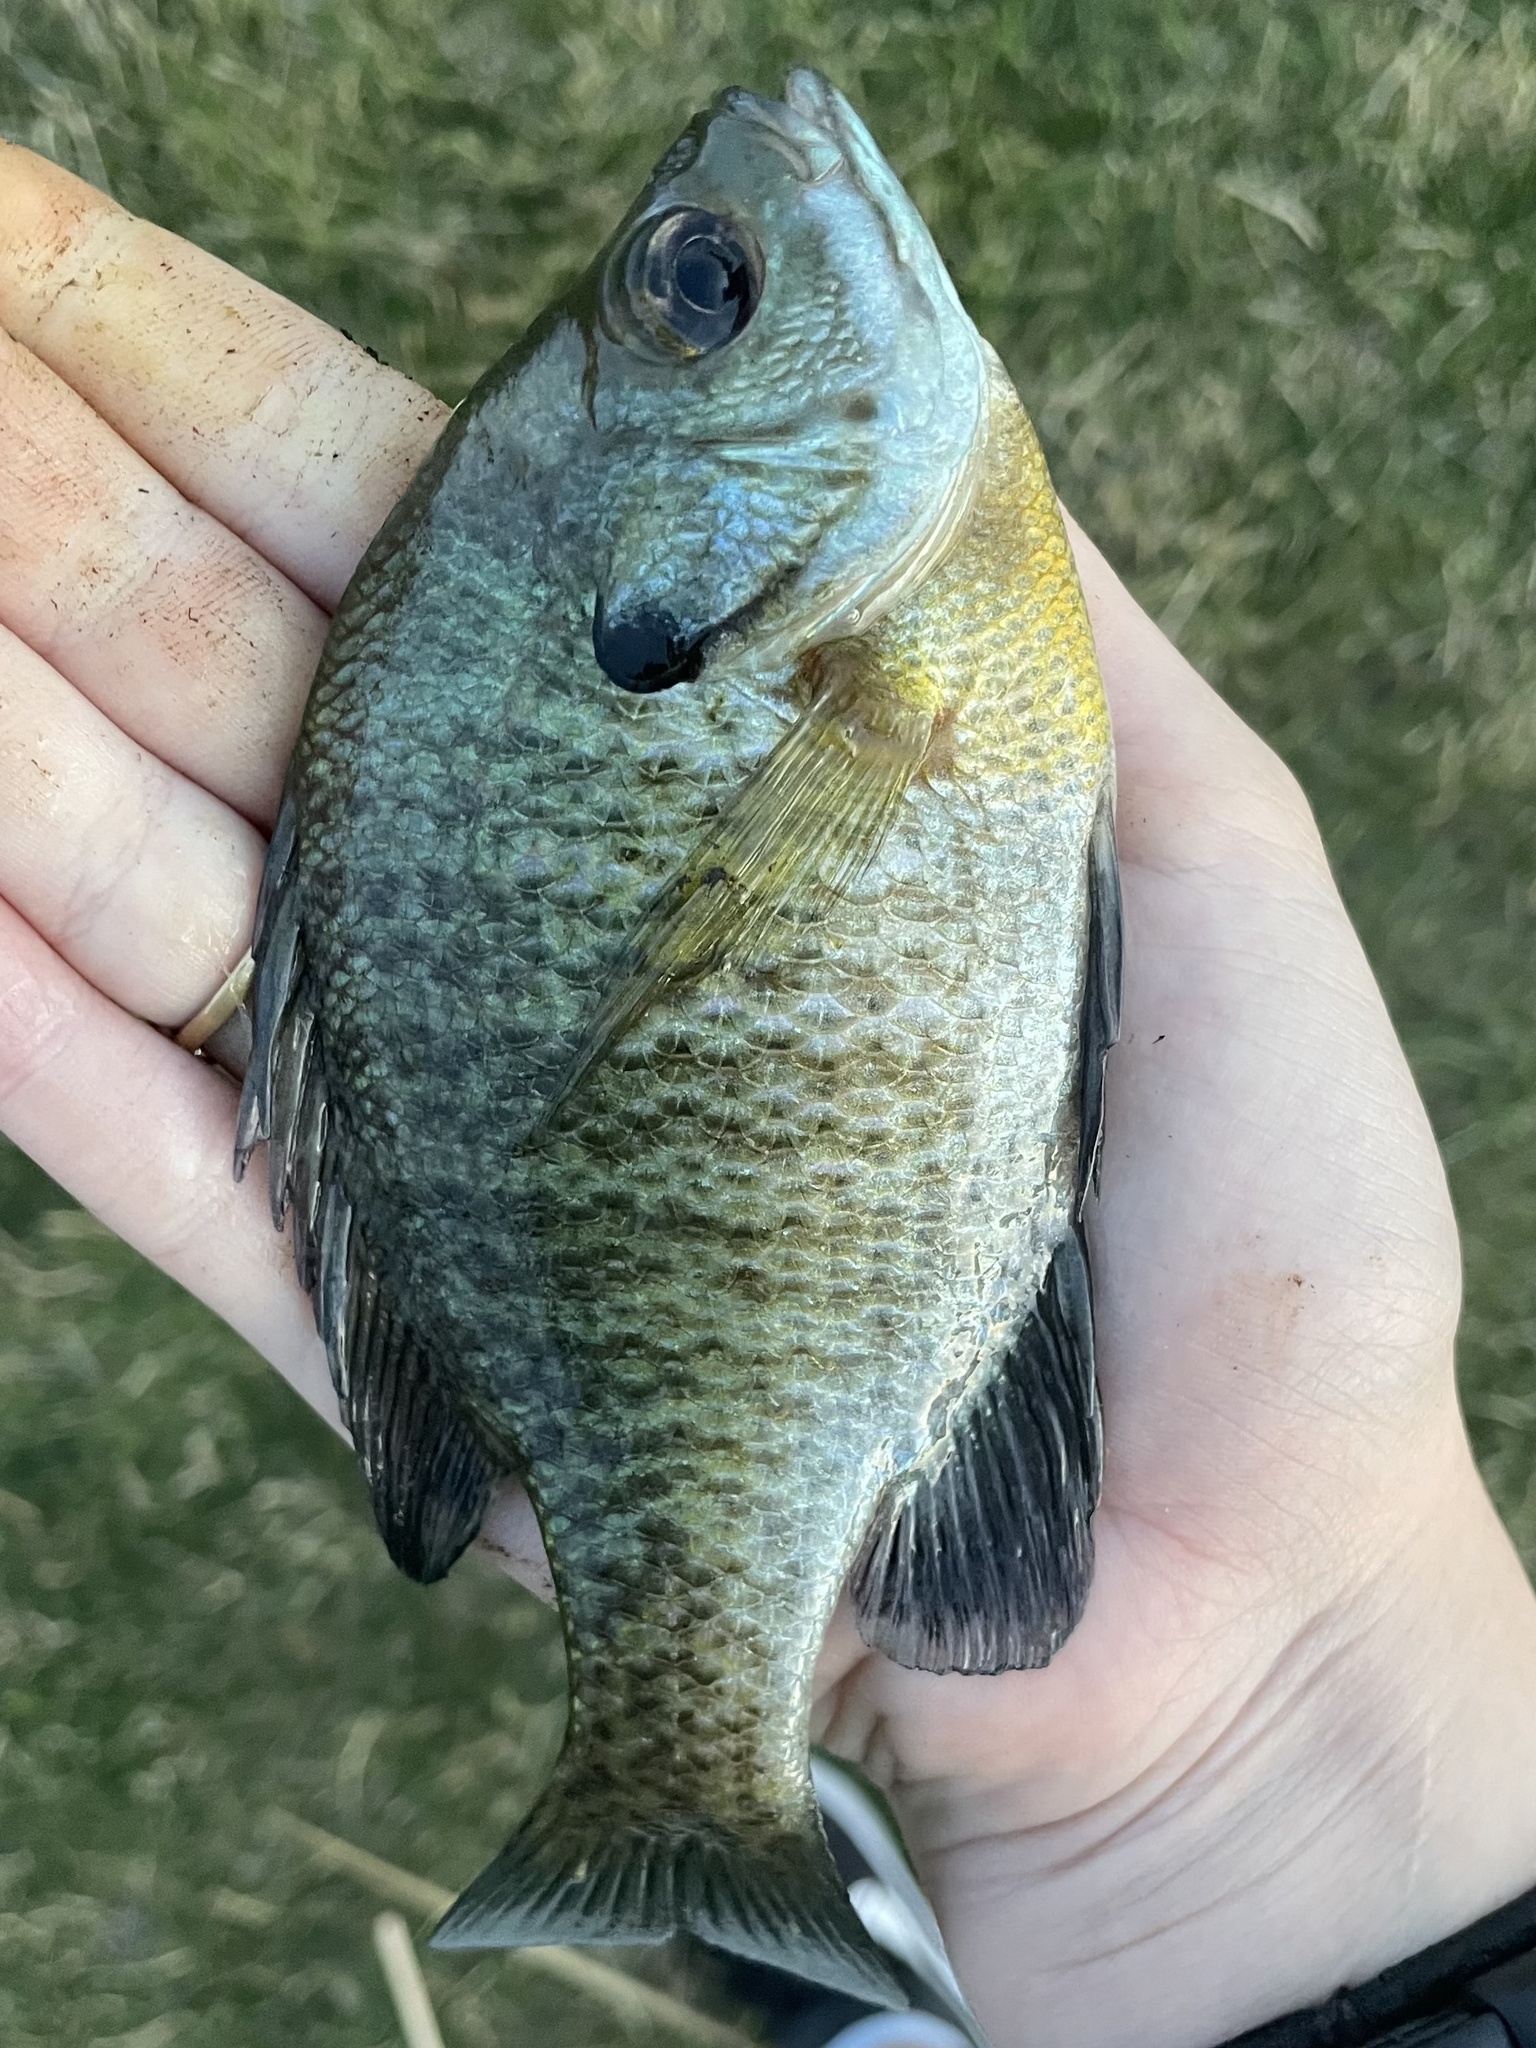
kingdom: Animalia
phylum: Chordata
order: Perciformes
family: Centrarchidae
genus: Lepomis
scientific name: Lepomis macrochirus
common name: Bluegill
